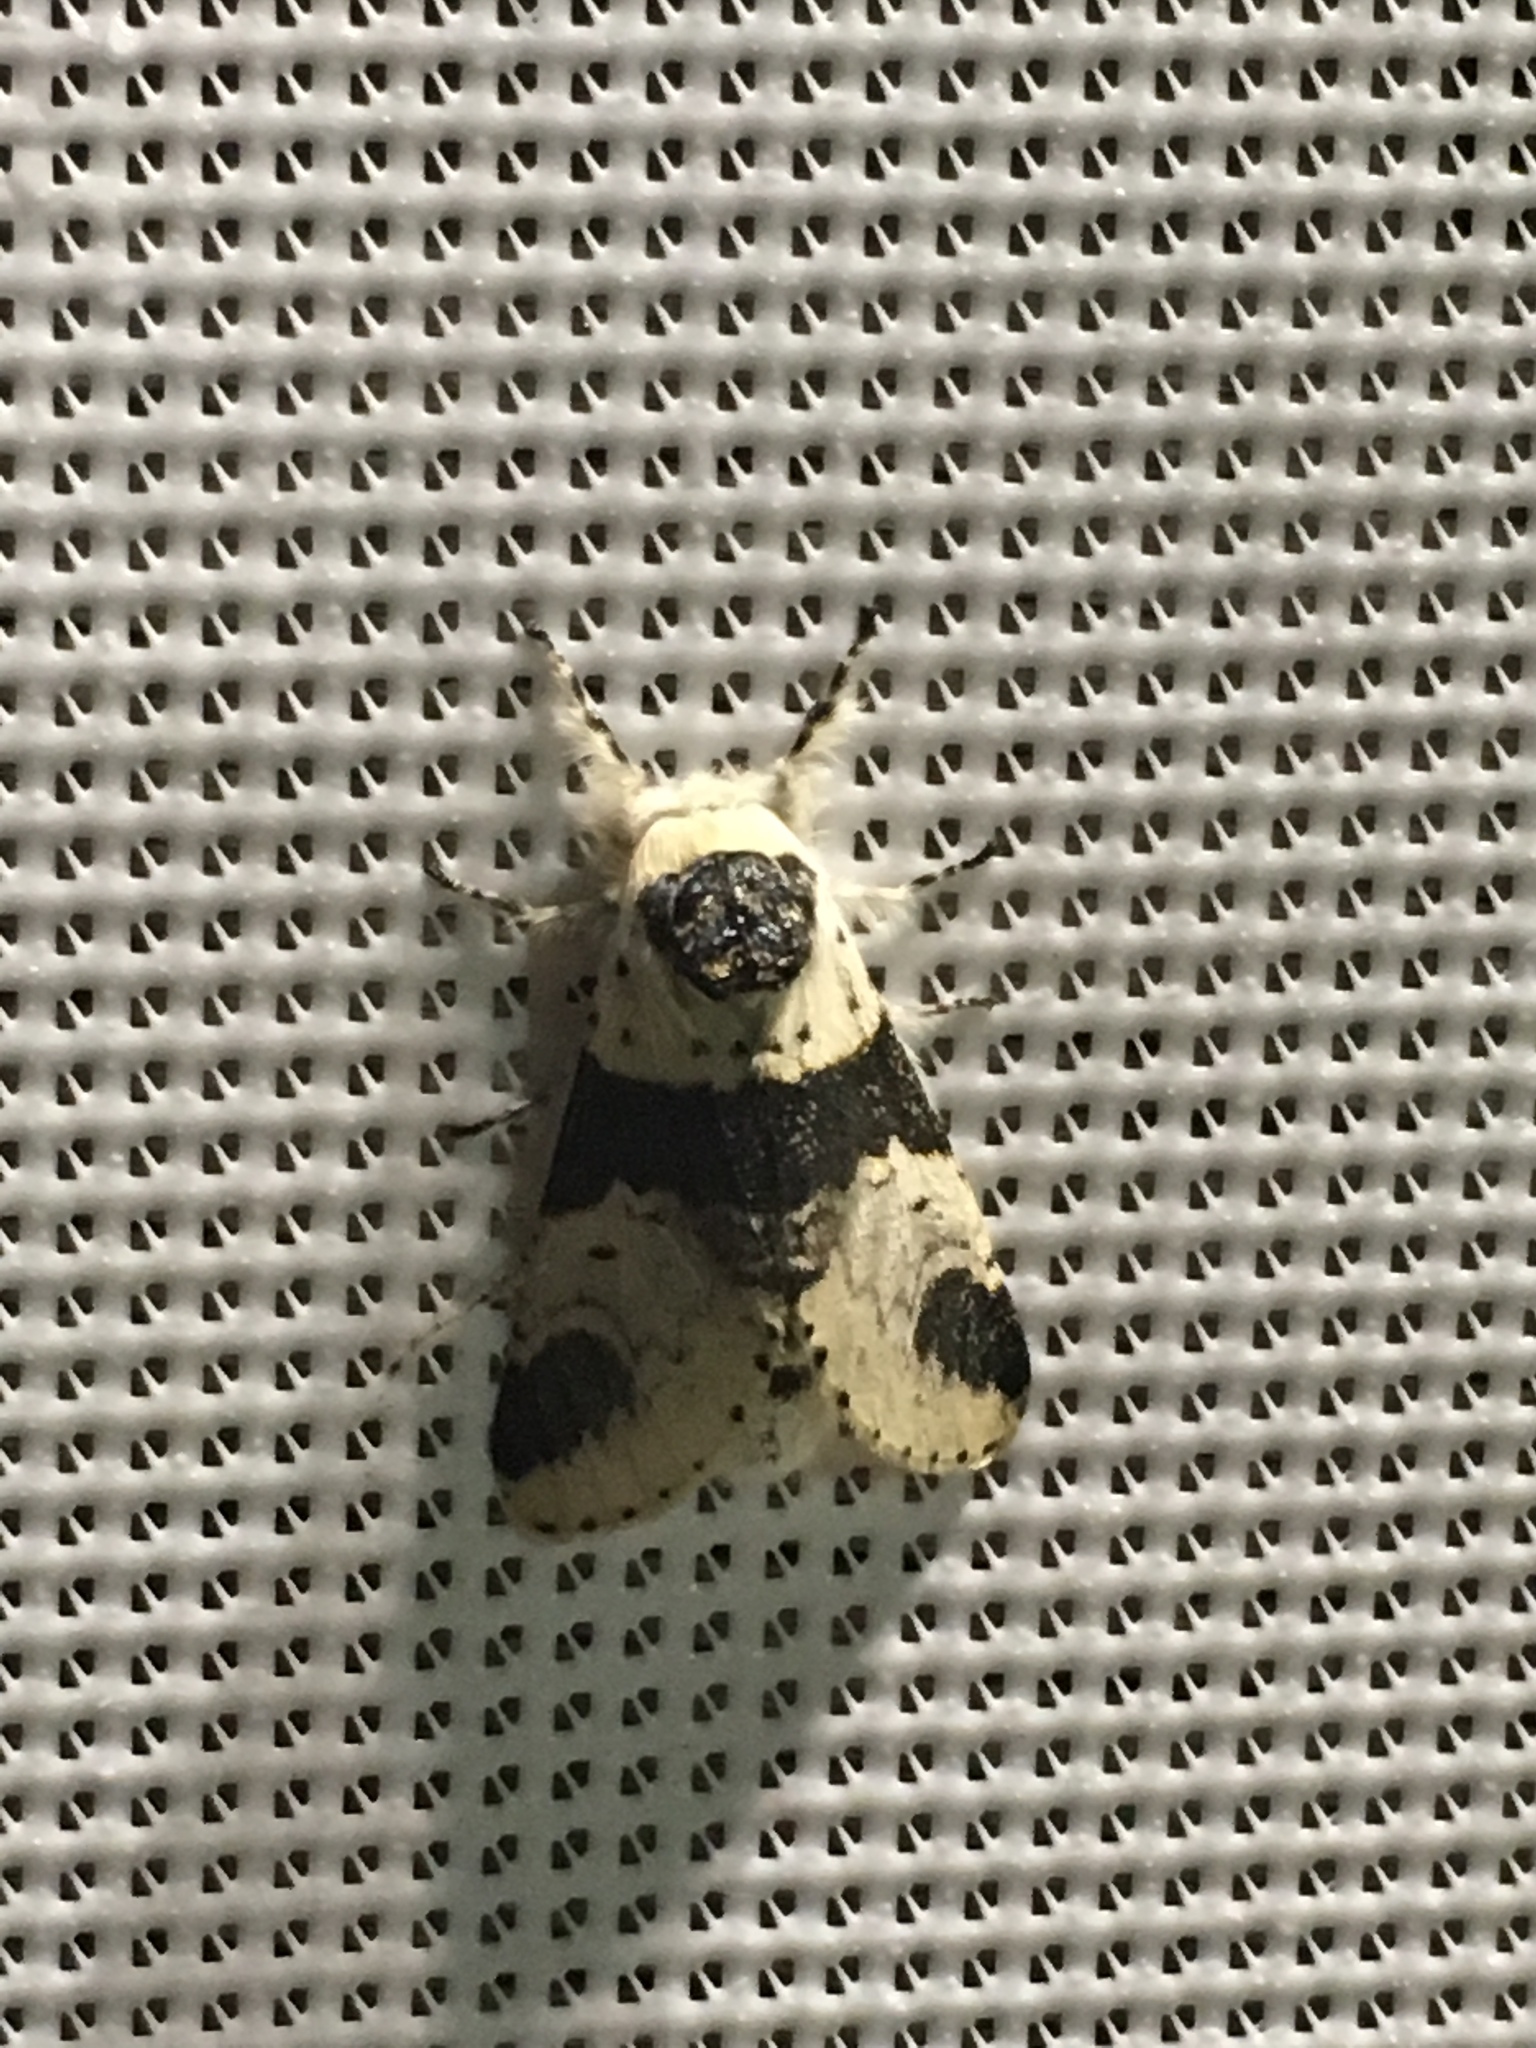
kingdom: Animalia
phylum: Arthropoda
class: Insecta
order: Lepidoptera
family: Notodontidae
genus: Furcula
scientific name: Furcula modesta
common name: Modest furcula moth
